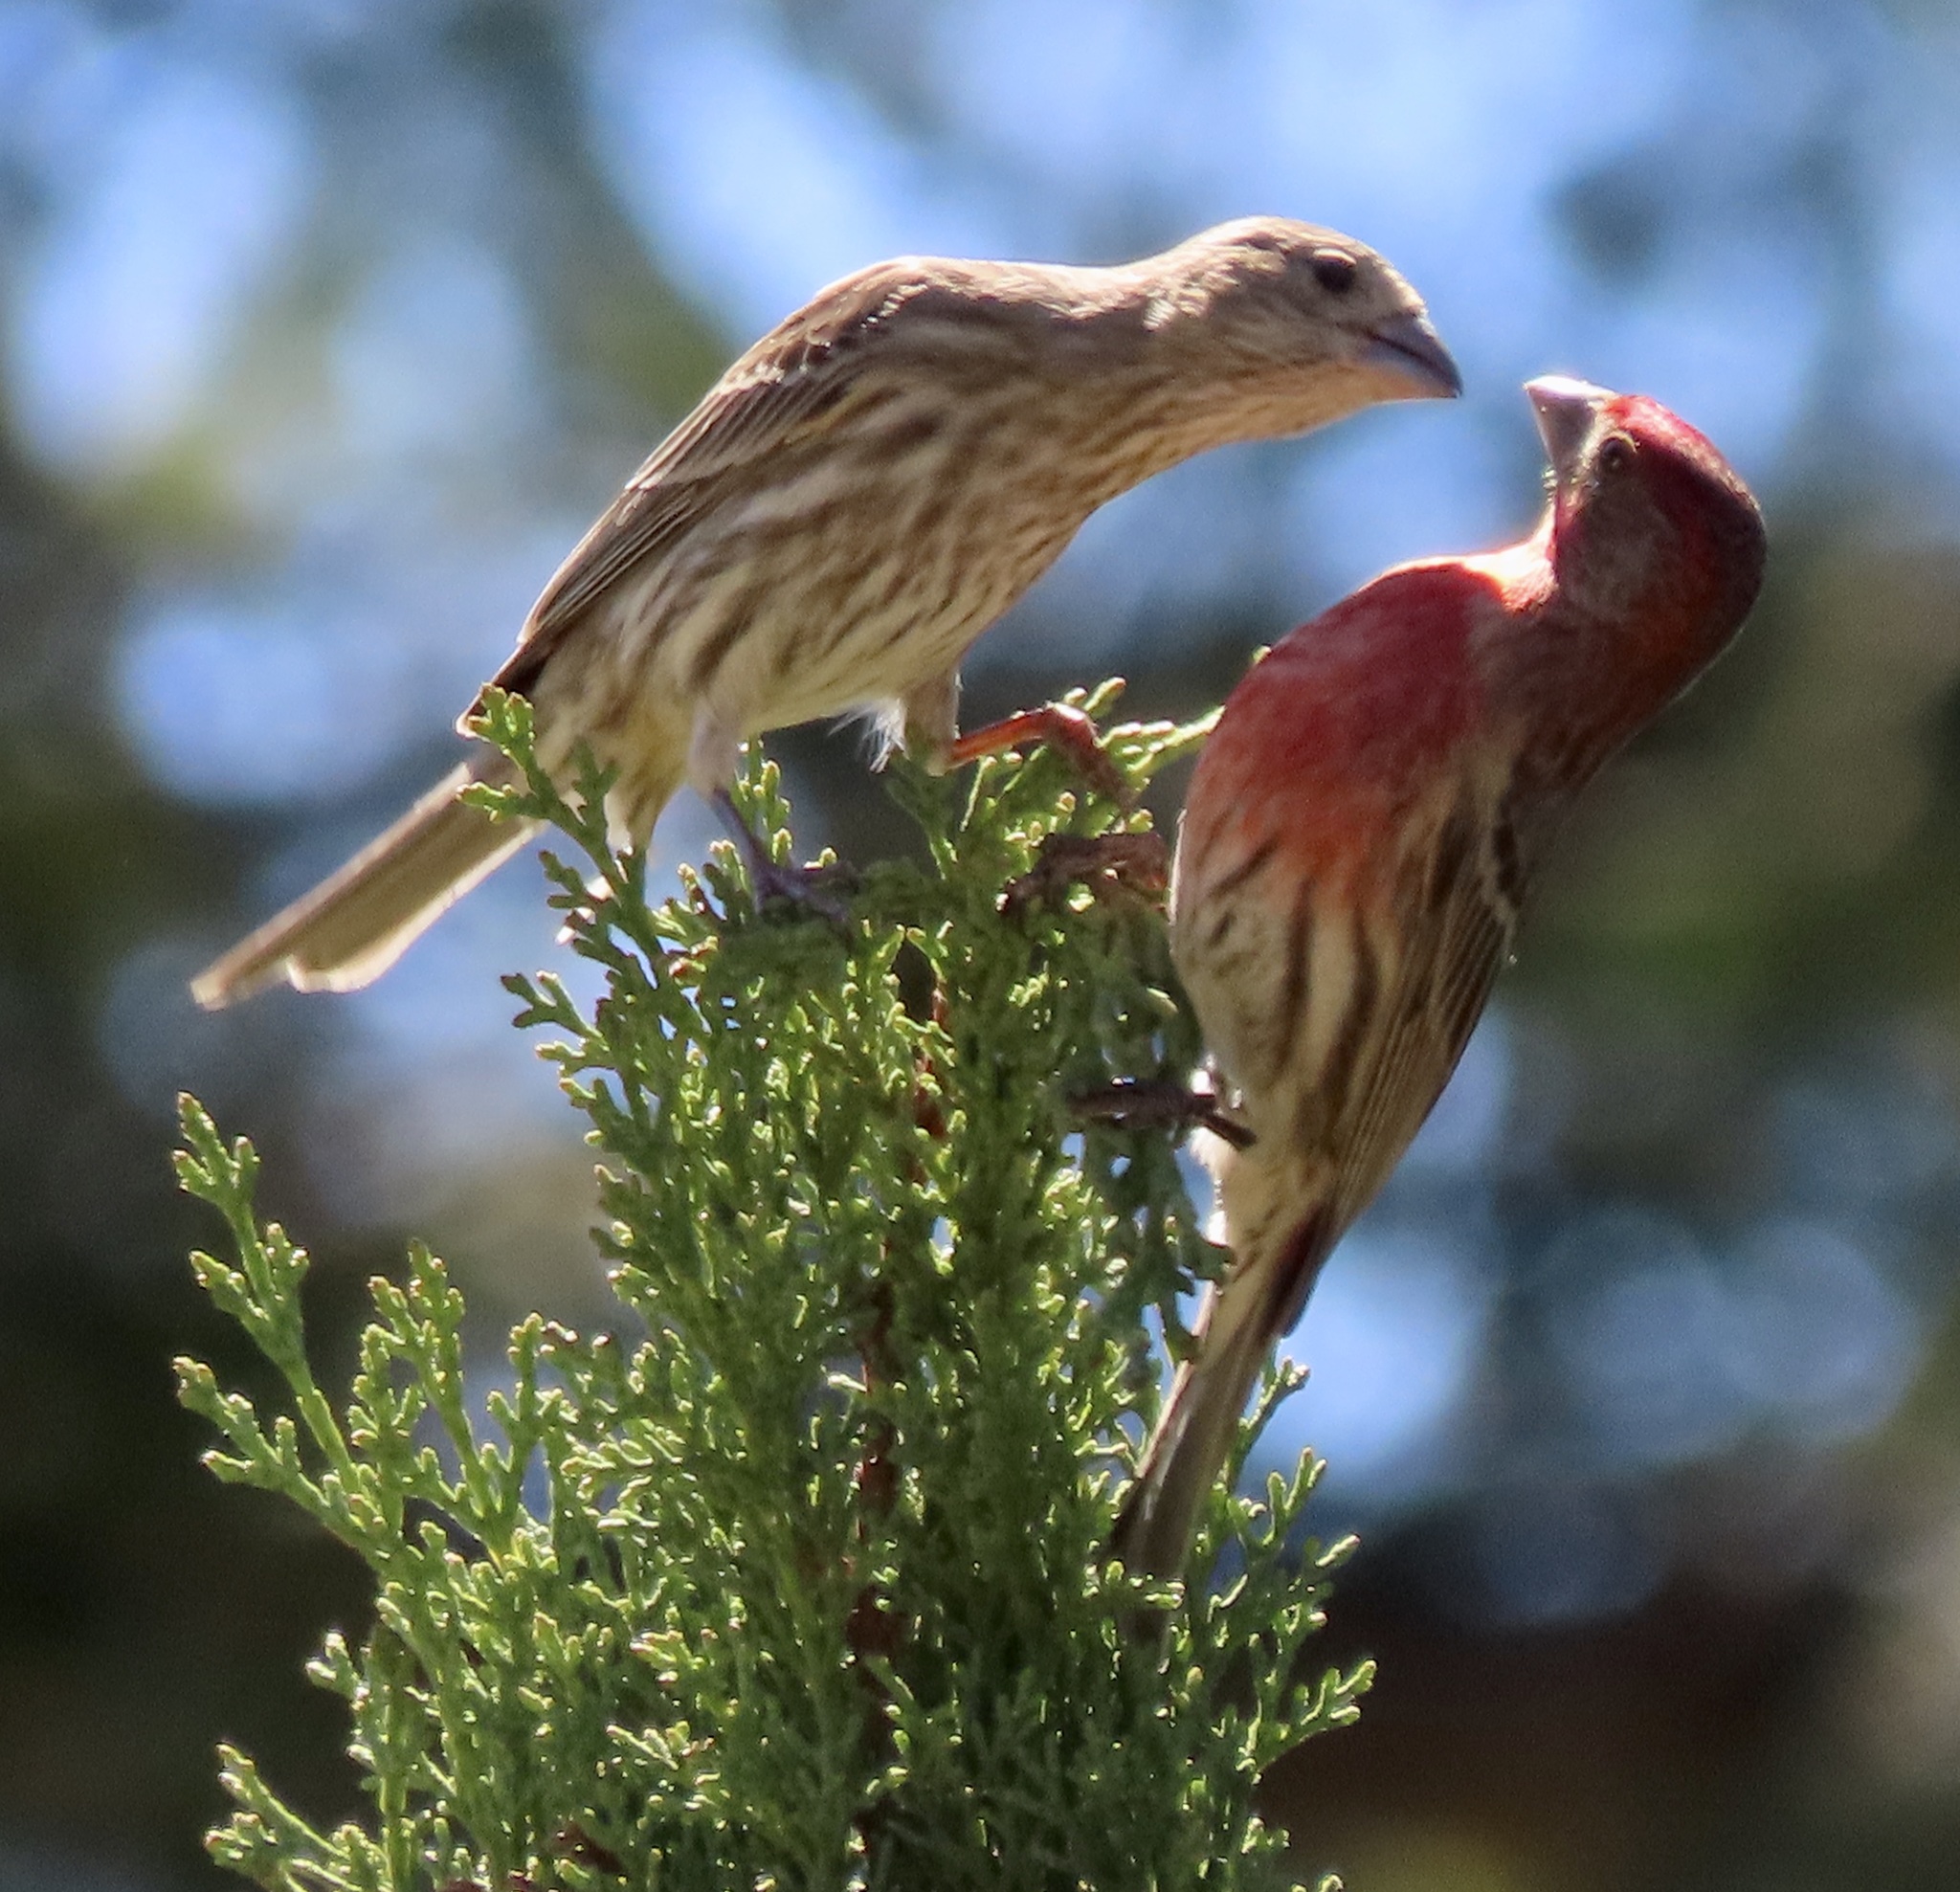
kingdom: Animalia
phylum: Chordata
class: Aves
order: Passeriformes
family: Fringillidae
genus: Haemorhous
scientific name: Haemorhous mexicanus
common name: House finch
